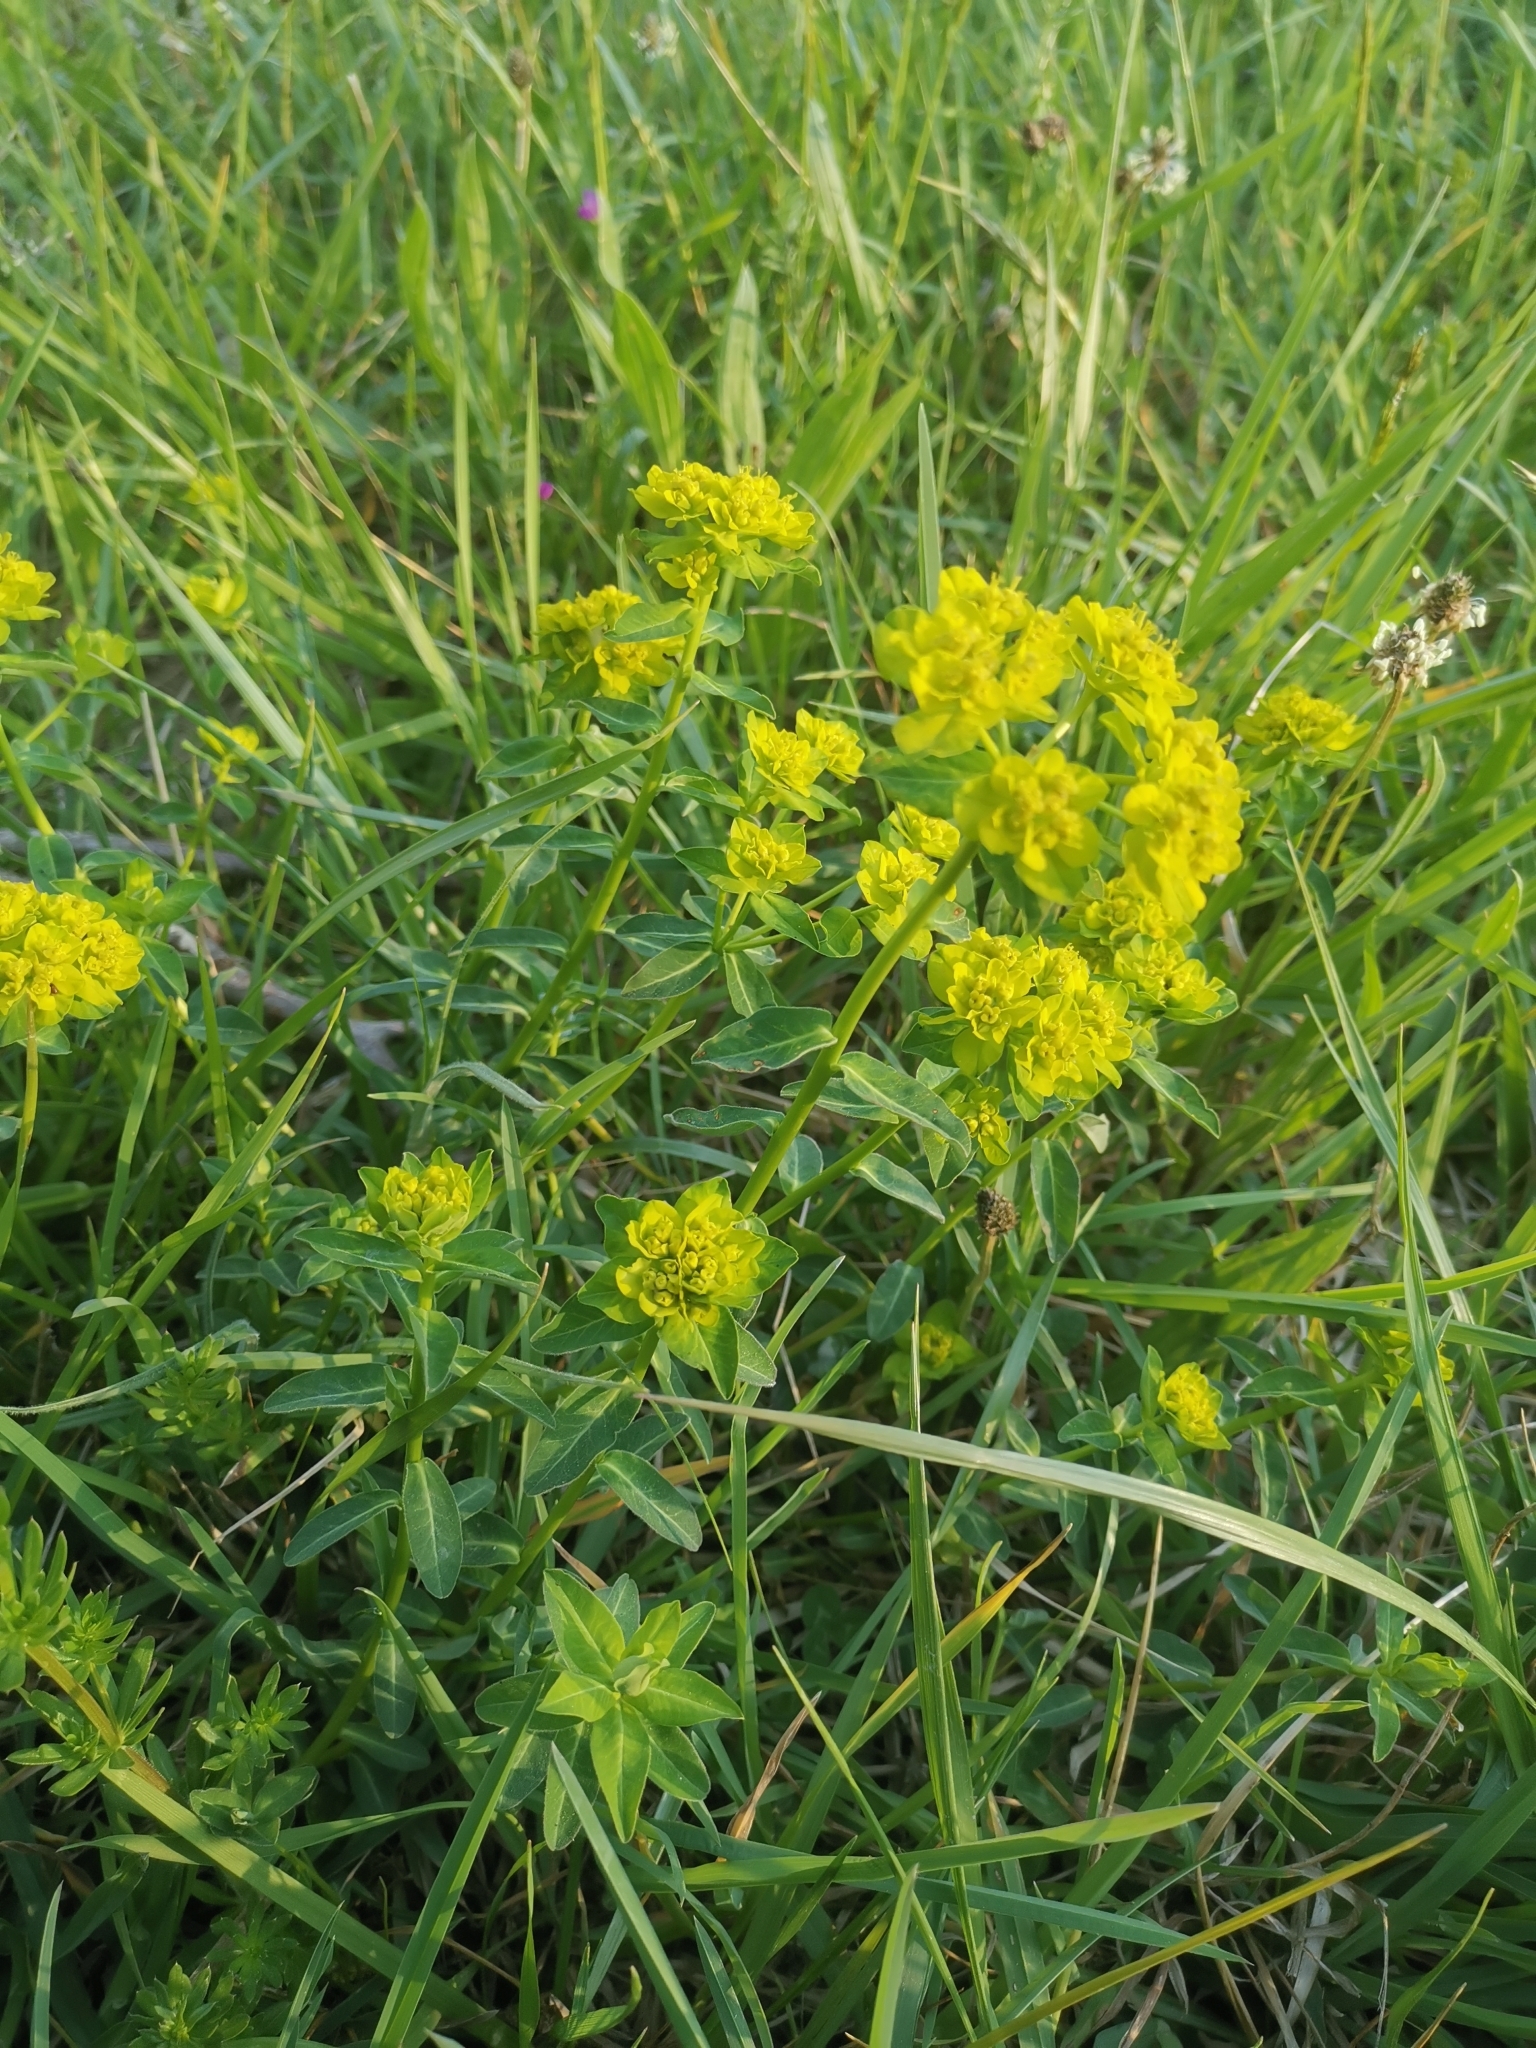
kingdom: Plantae
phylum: Tracheophyta
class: Magnoliopsida
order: Malpighiales
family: Euphorbiaceae
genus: Euphorbia
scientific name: Euphorbia verrucosa
